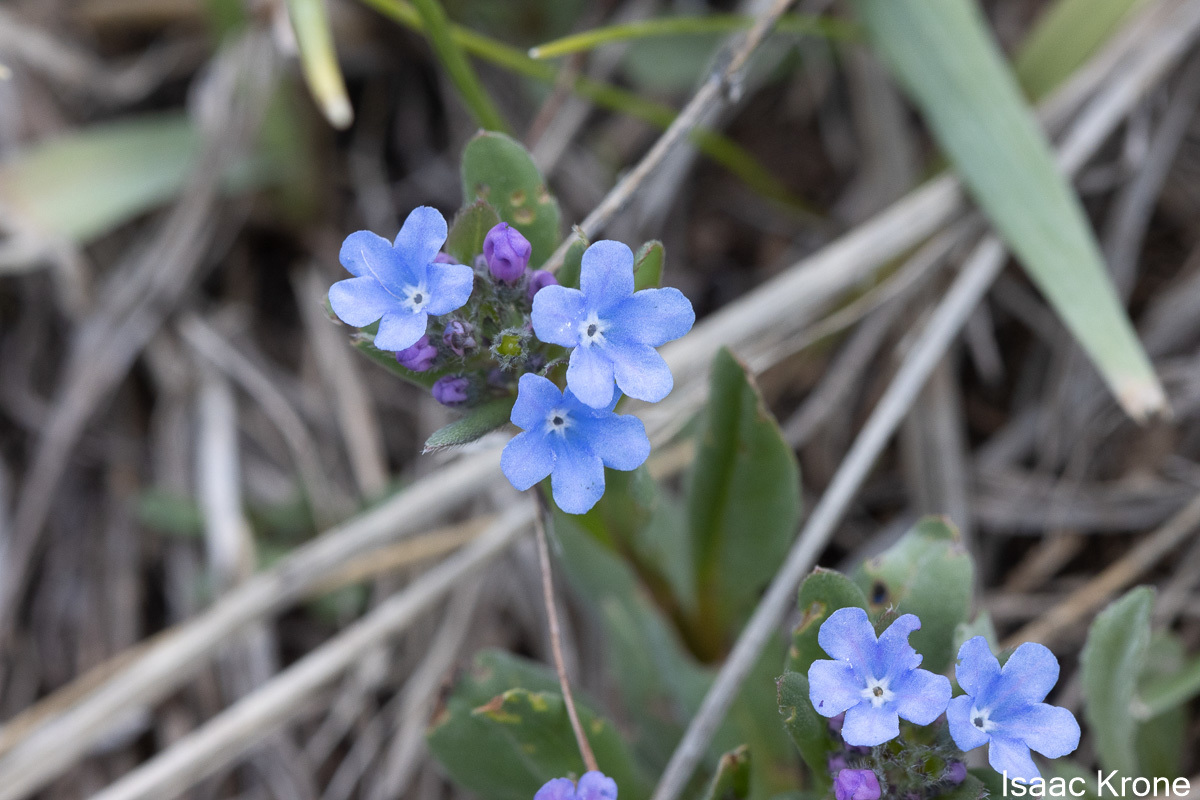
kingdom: Plantae
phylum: Tracheophyta
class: Magnoliopsida
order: Boraginales
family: Boraginaceae
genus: Mertensia
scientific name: Mertensia brevistyla
